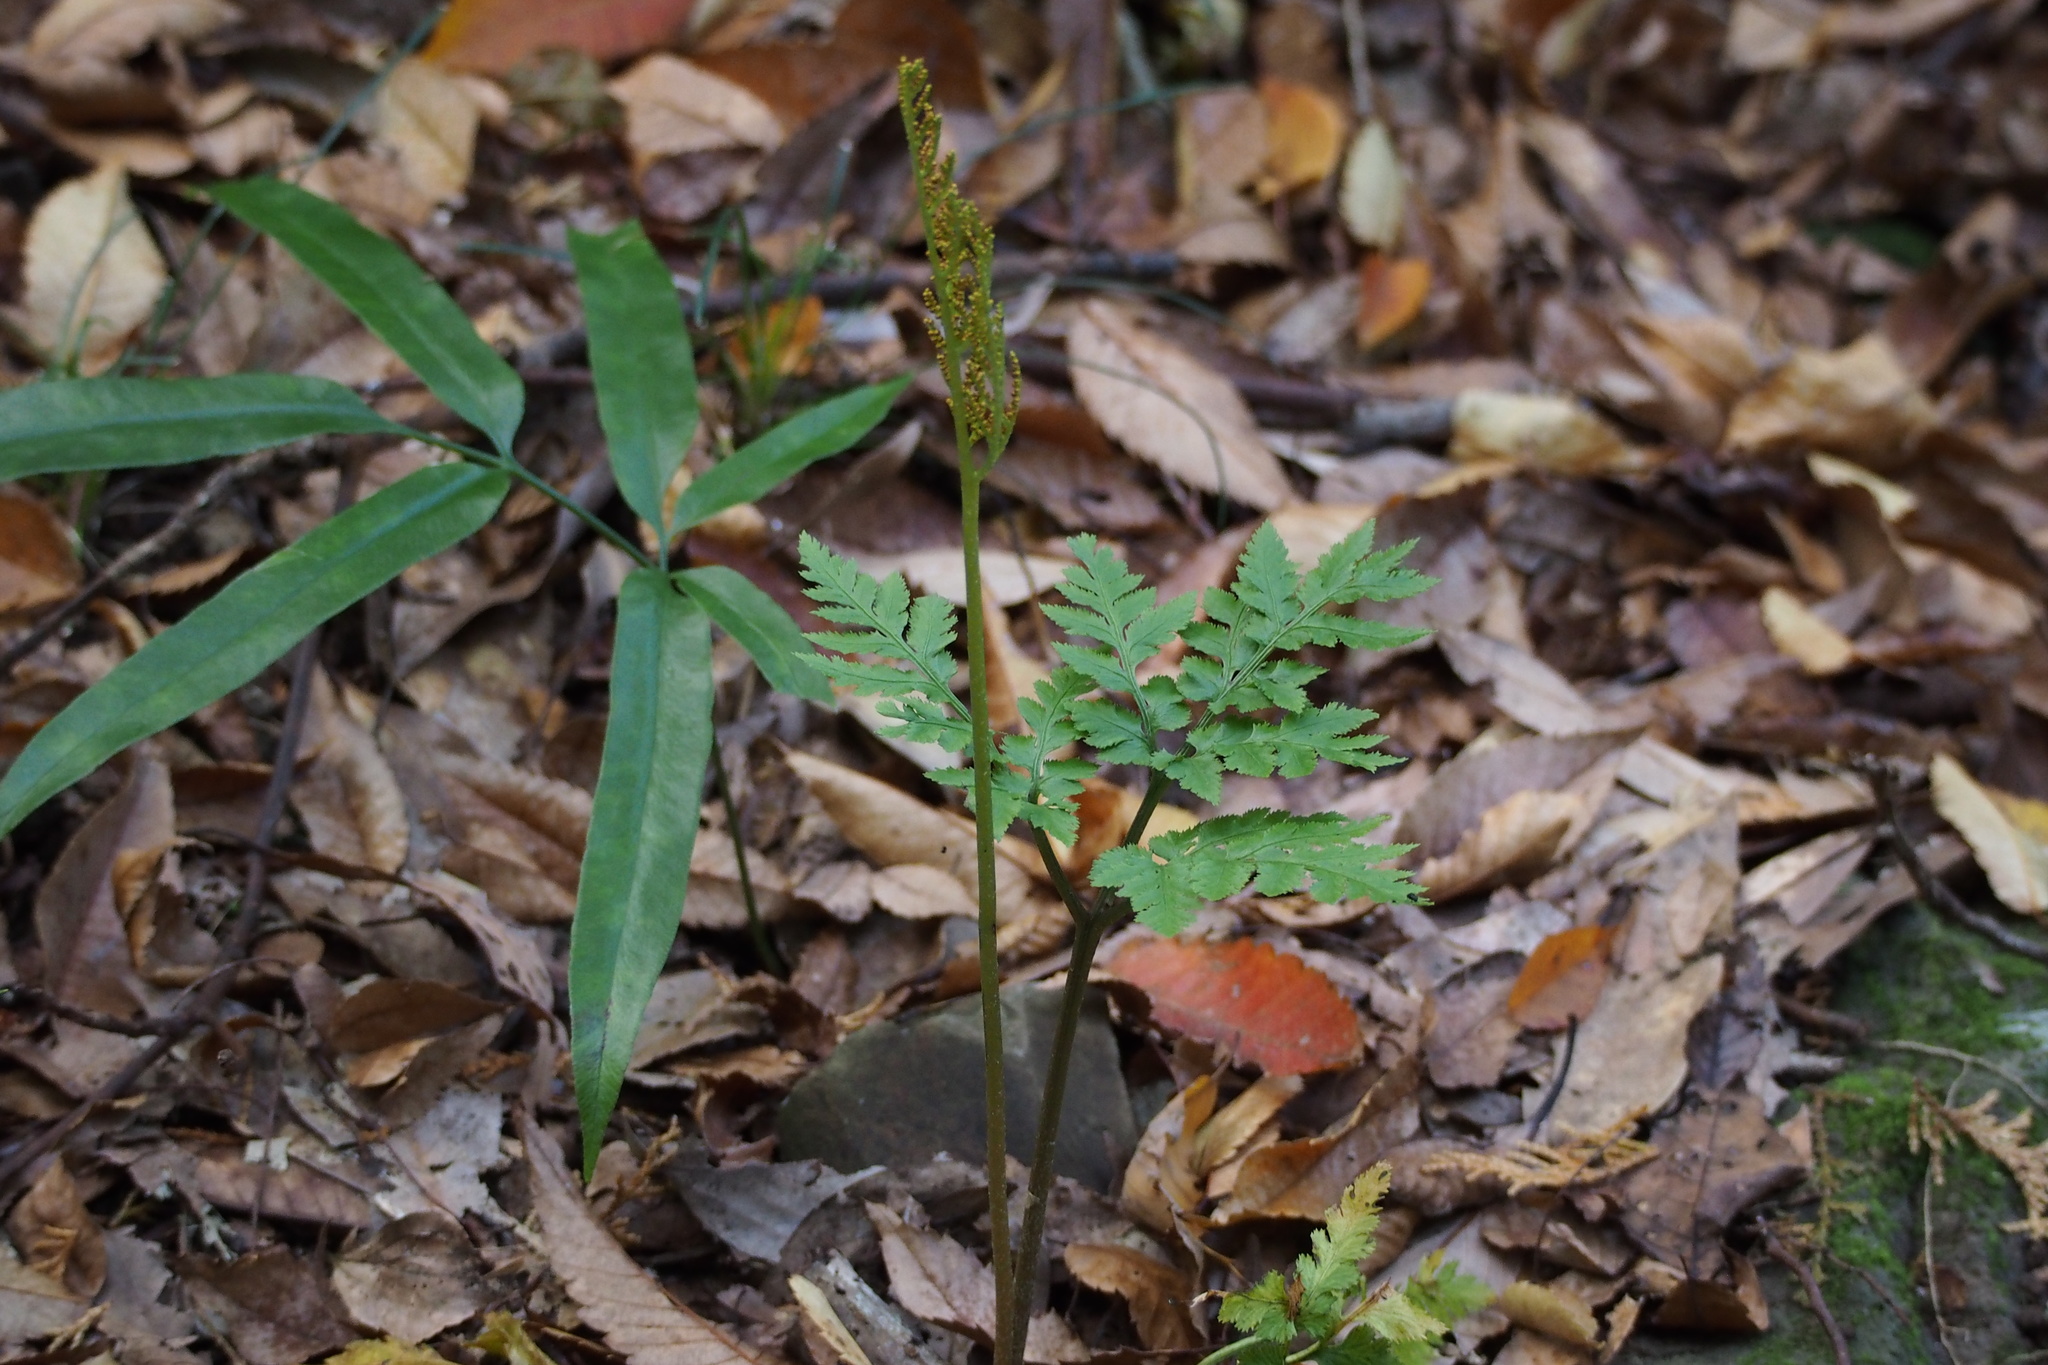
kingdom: Plantae
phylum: Tracheophyta
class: Polypodiopsida
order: Ophioglossales
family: Ophioglossaceae
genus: Sceptridium
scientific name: Sceptridium japonicum
